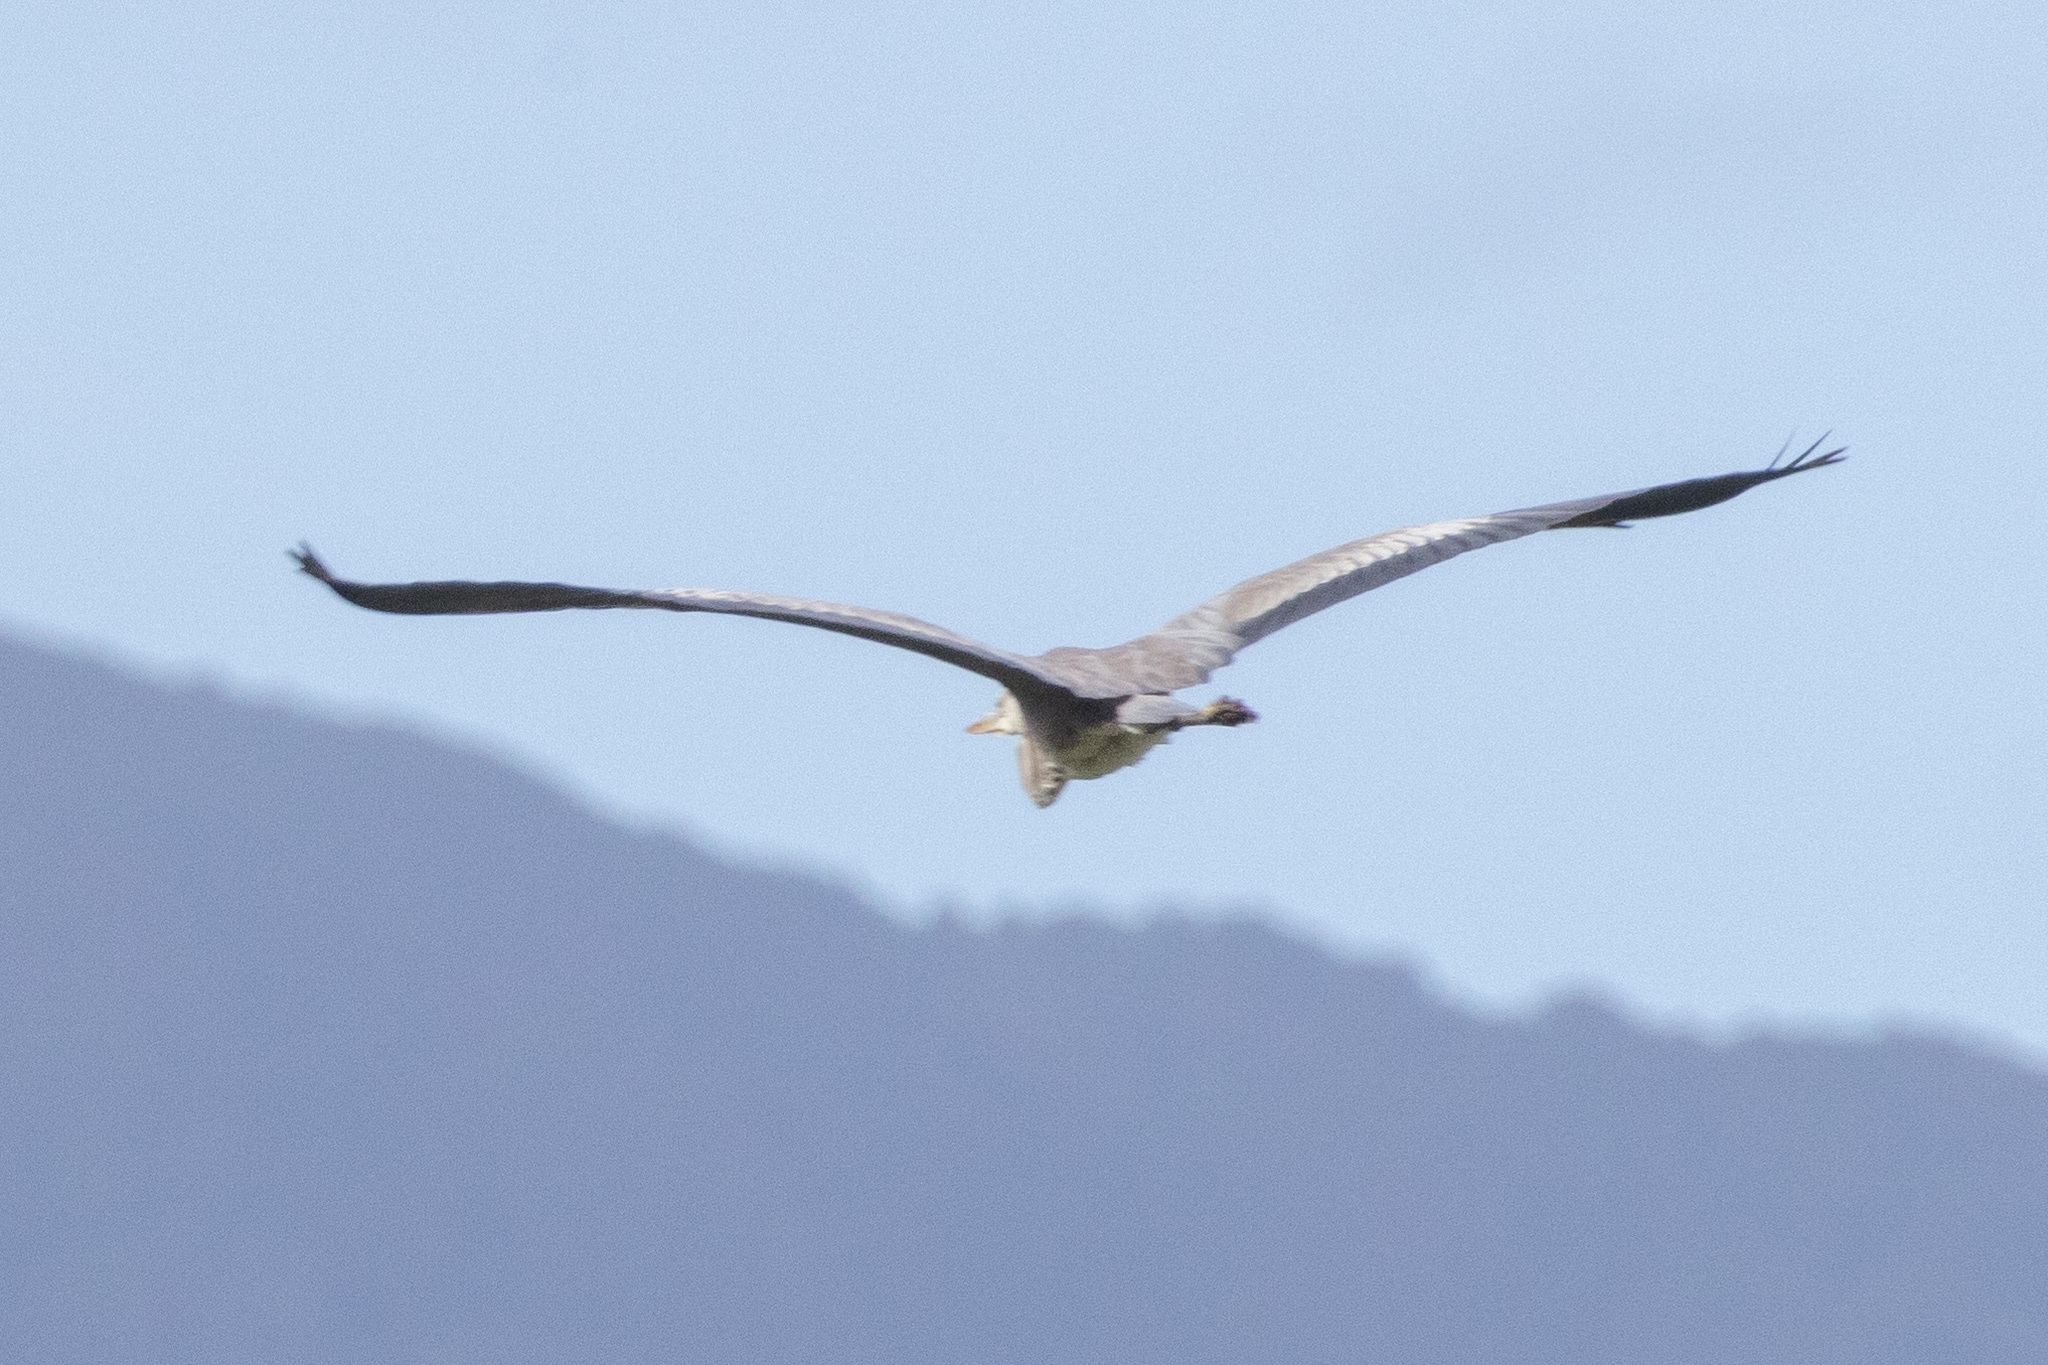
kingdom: Animalia
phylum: Chordata
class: Aves
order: Pelecaniformes
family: Ardeidae
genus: Ardea
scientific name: Ardea cinerea
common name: Grey heron
